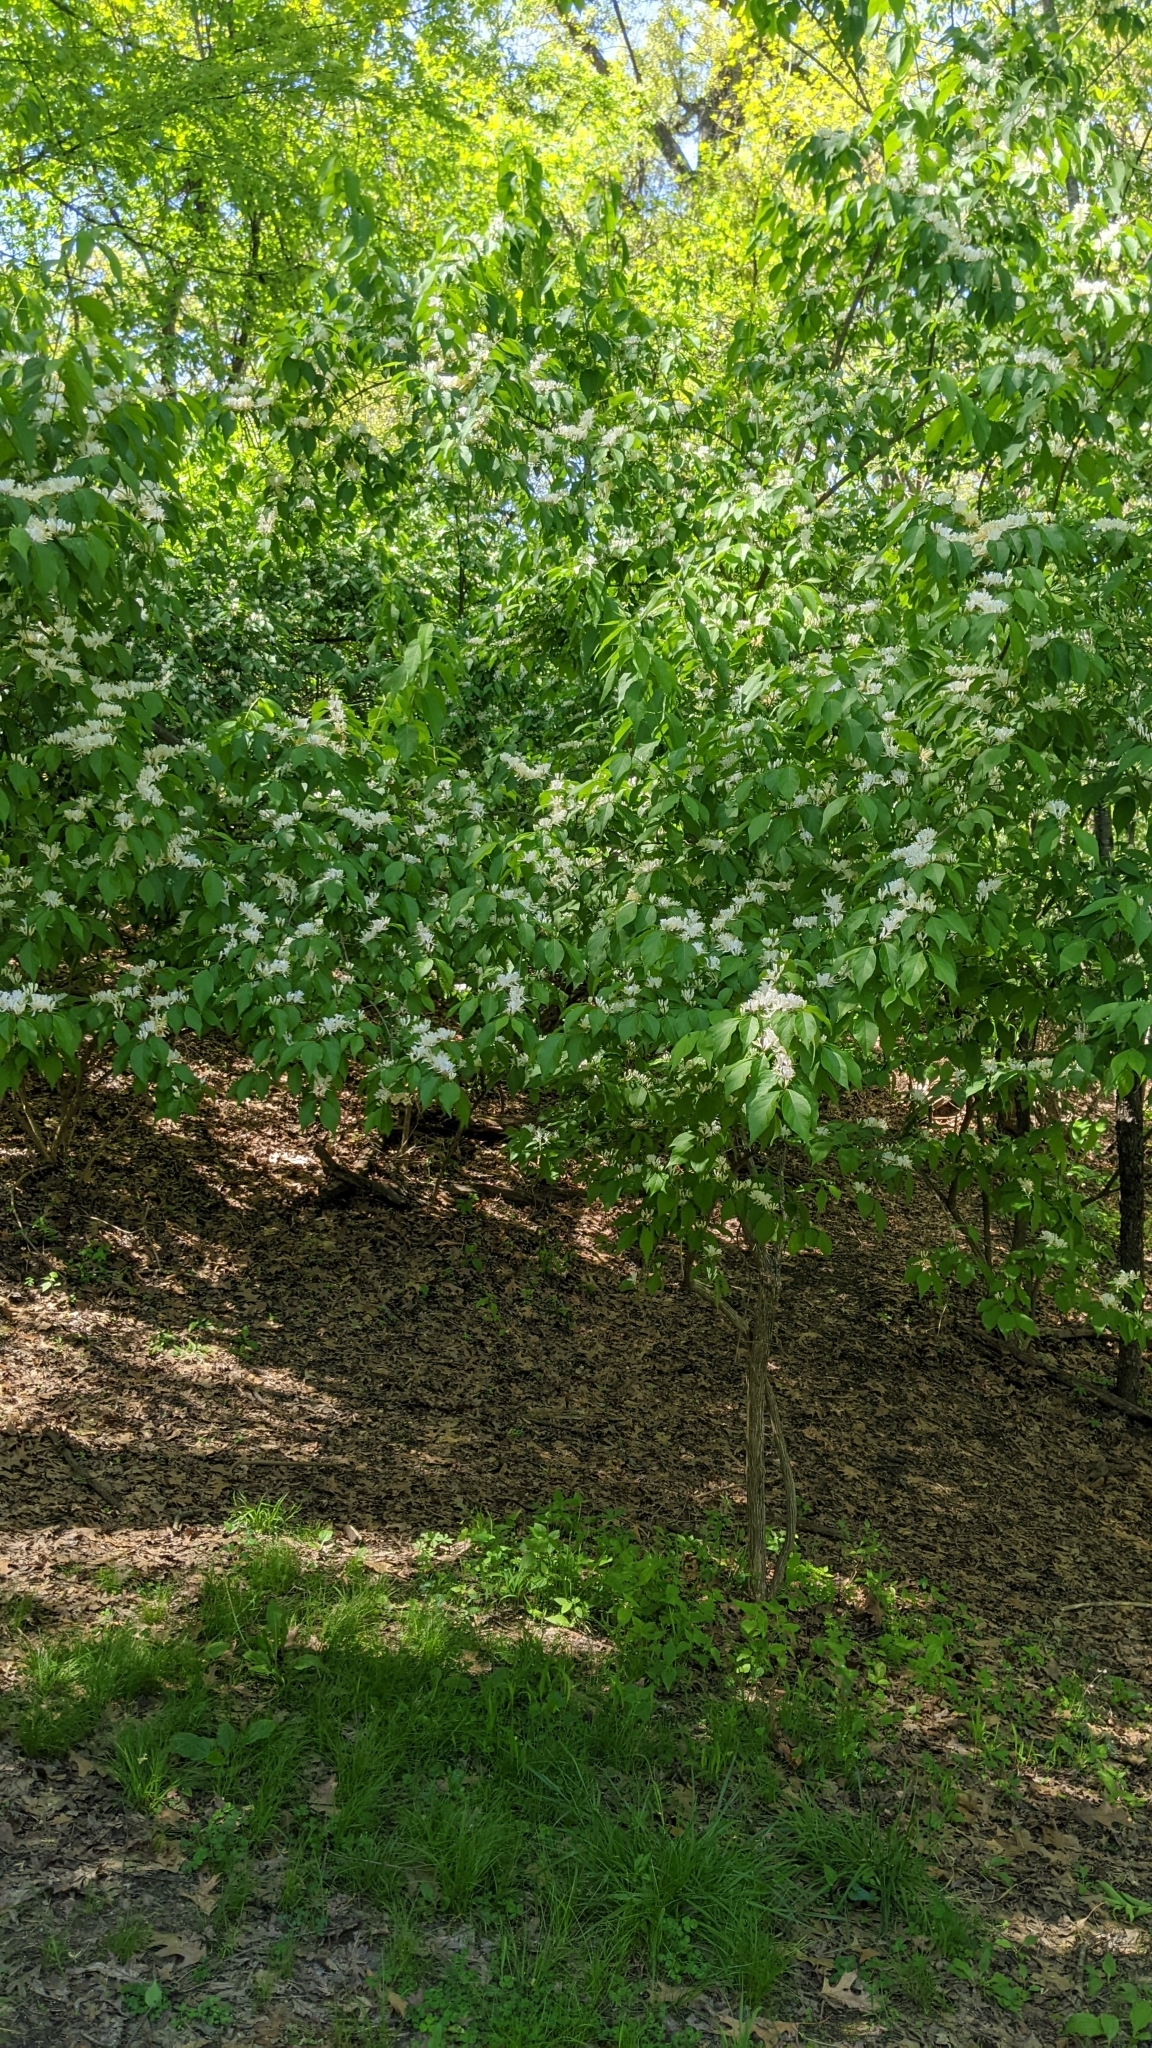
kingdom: Plantae
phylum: Tracheophyta
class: Magnoliopsida
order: Dipsacales
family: Caprifoliaceae
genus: Lonicera
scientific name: Lonicera maackii
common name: Amur honeysuckle
